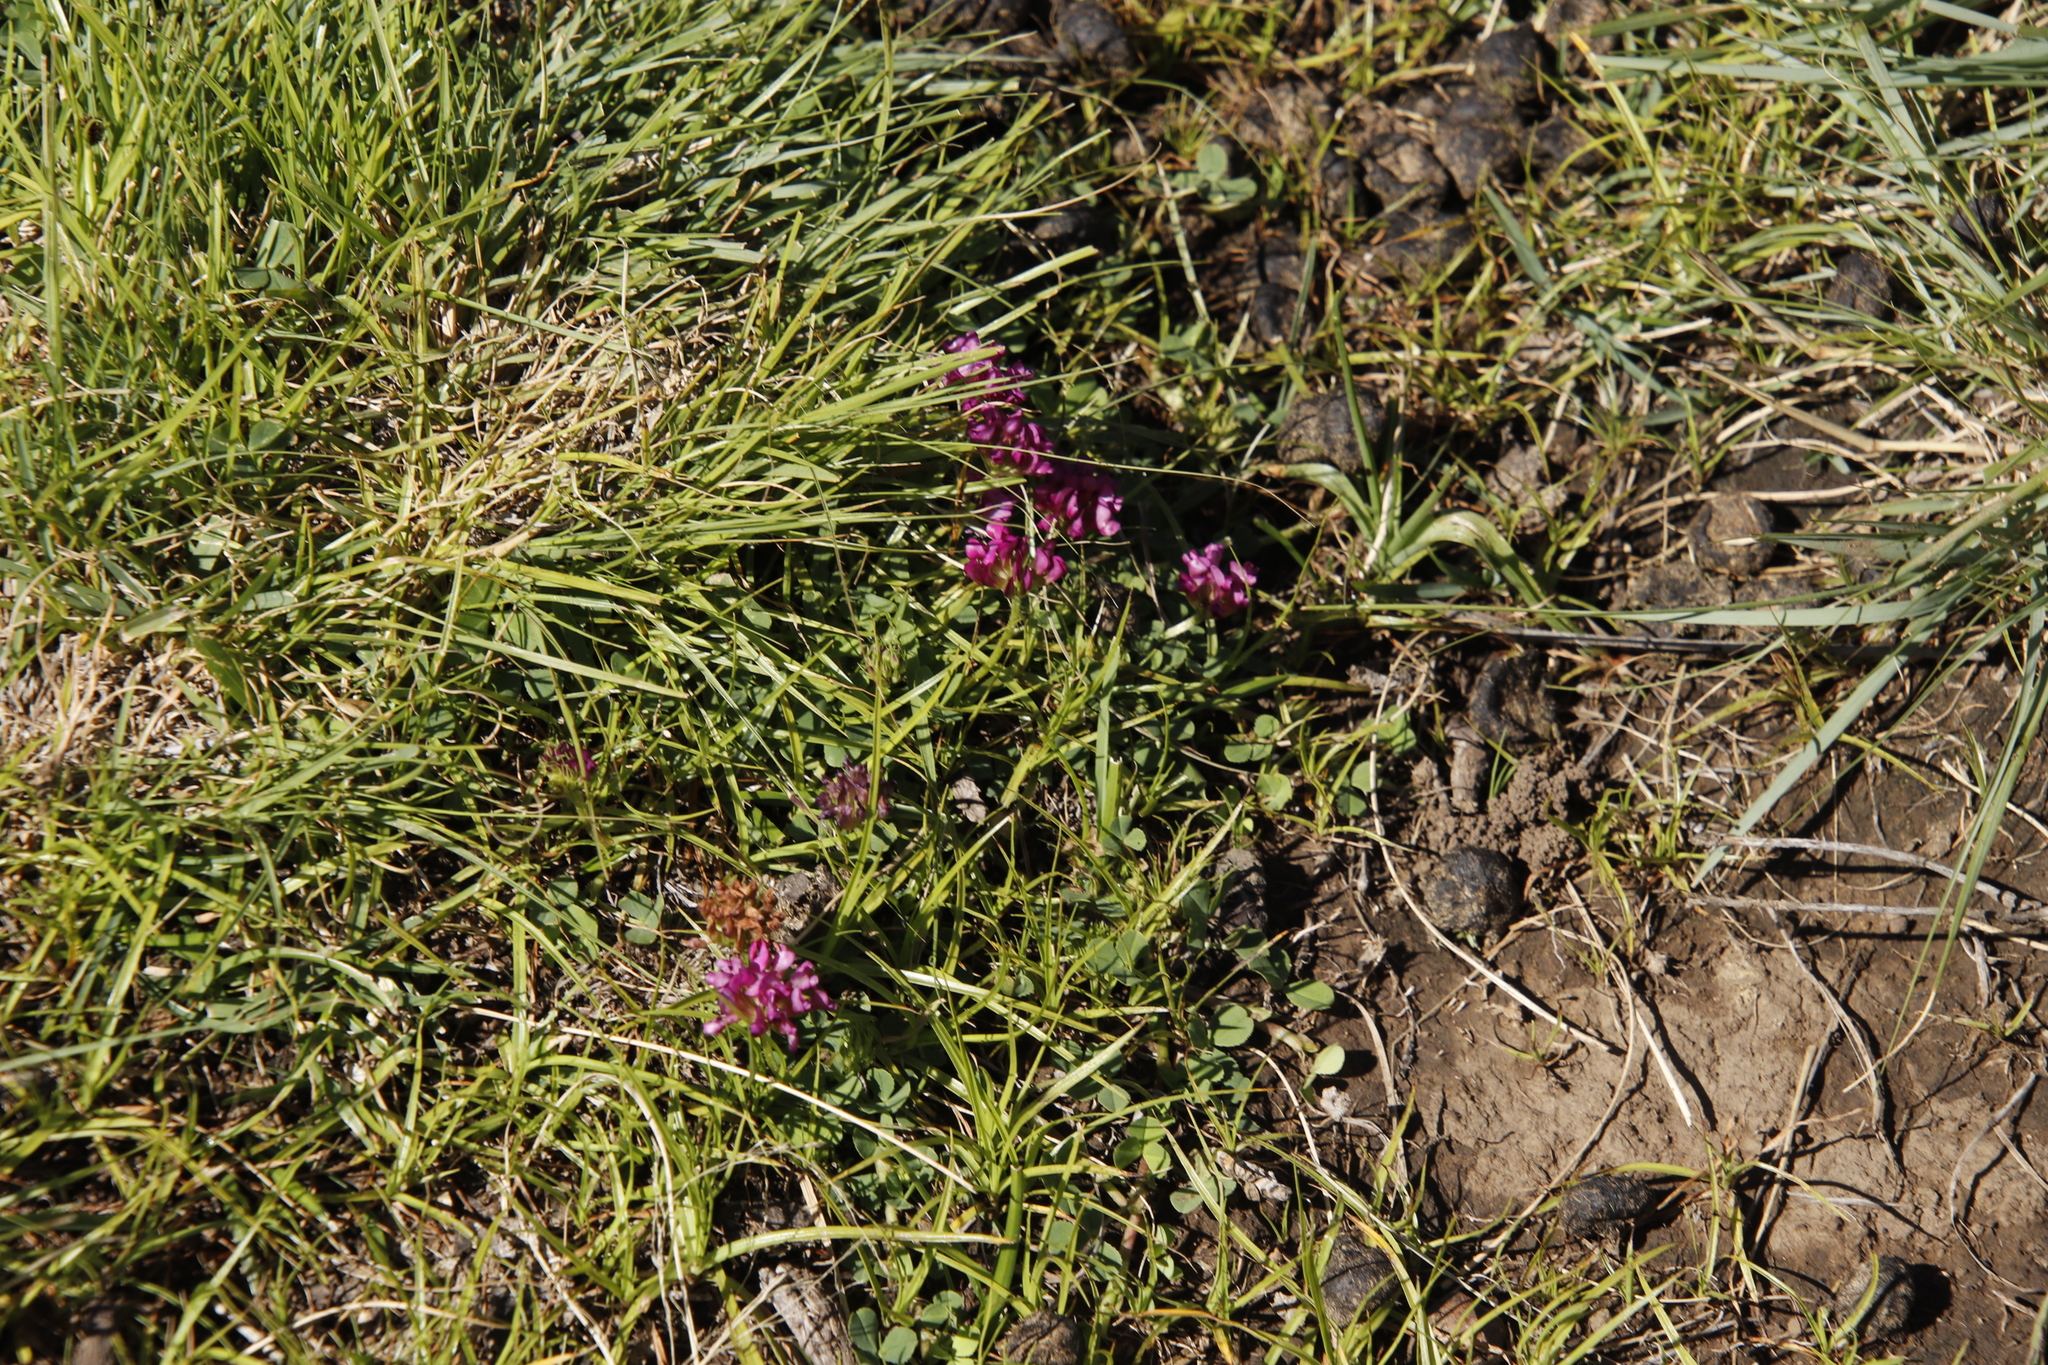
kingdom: Plantae
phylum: Tracheophyta
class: Magnoliopsida
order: Fabales
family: Fabaceae
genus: Trifolium
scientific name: Trifolium burchellianum
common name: Burchell's clover
